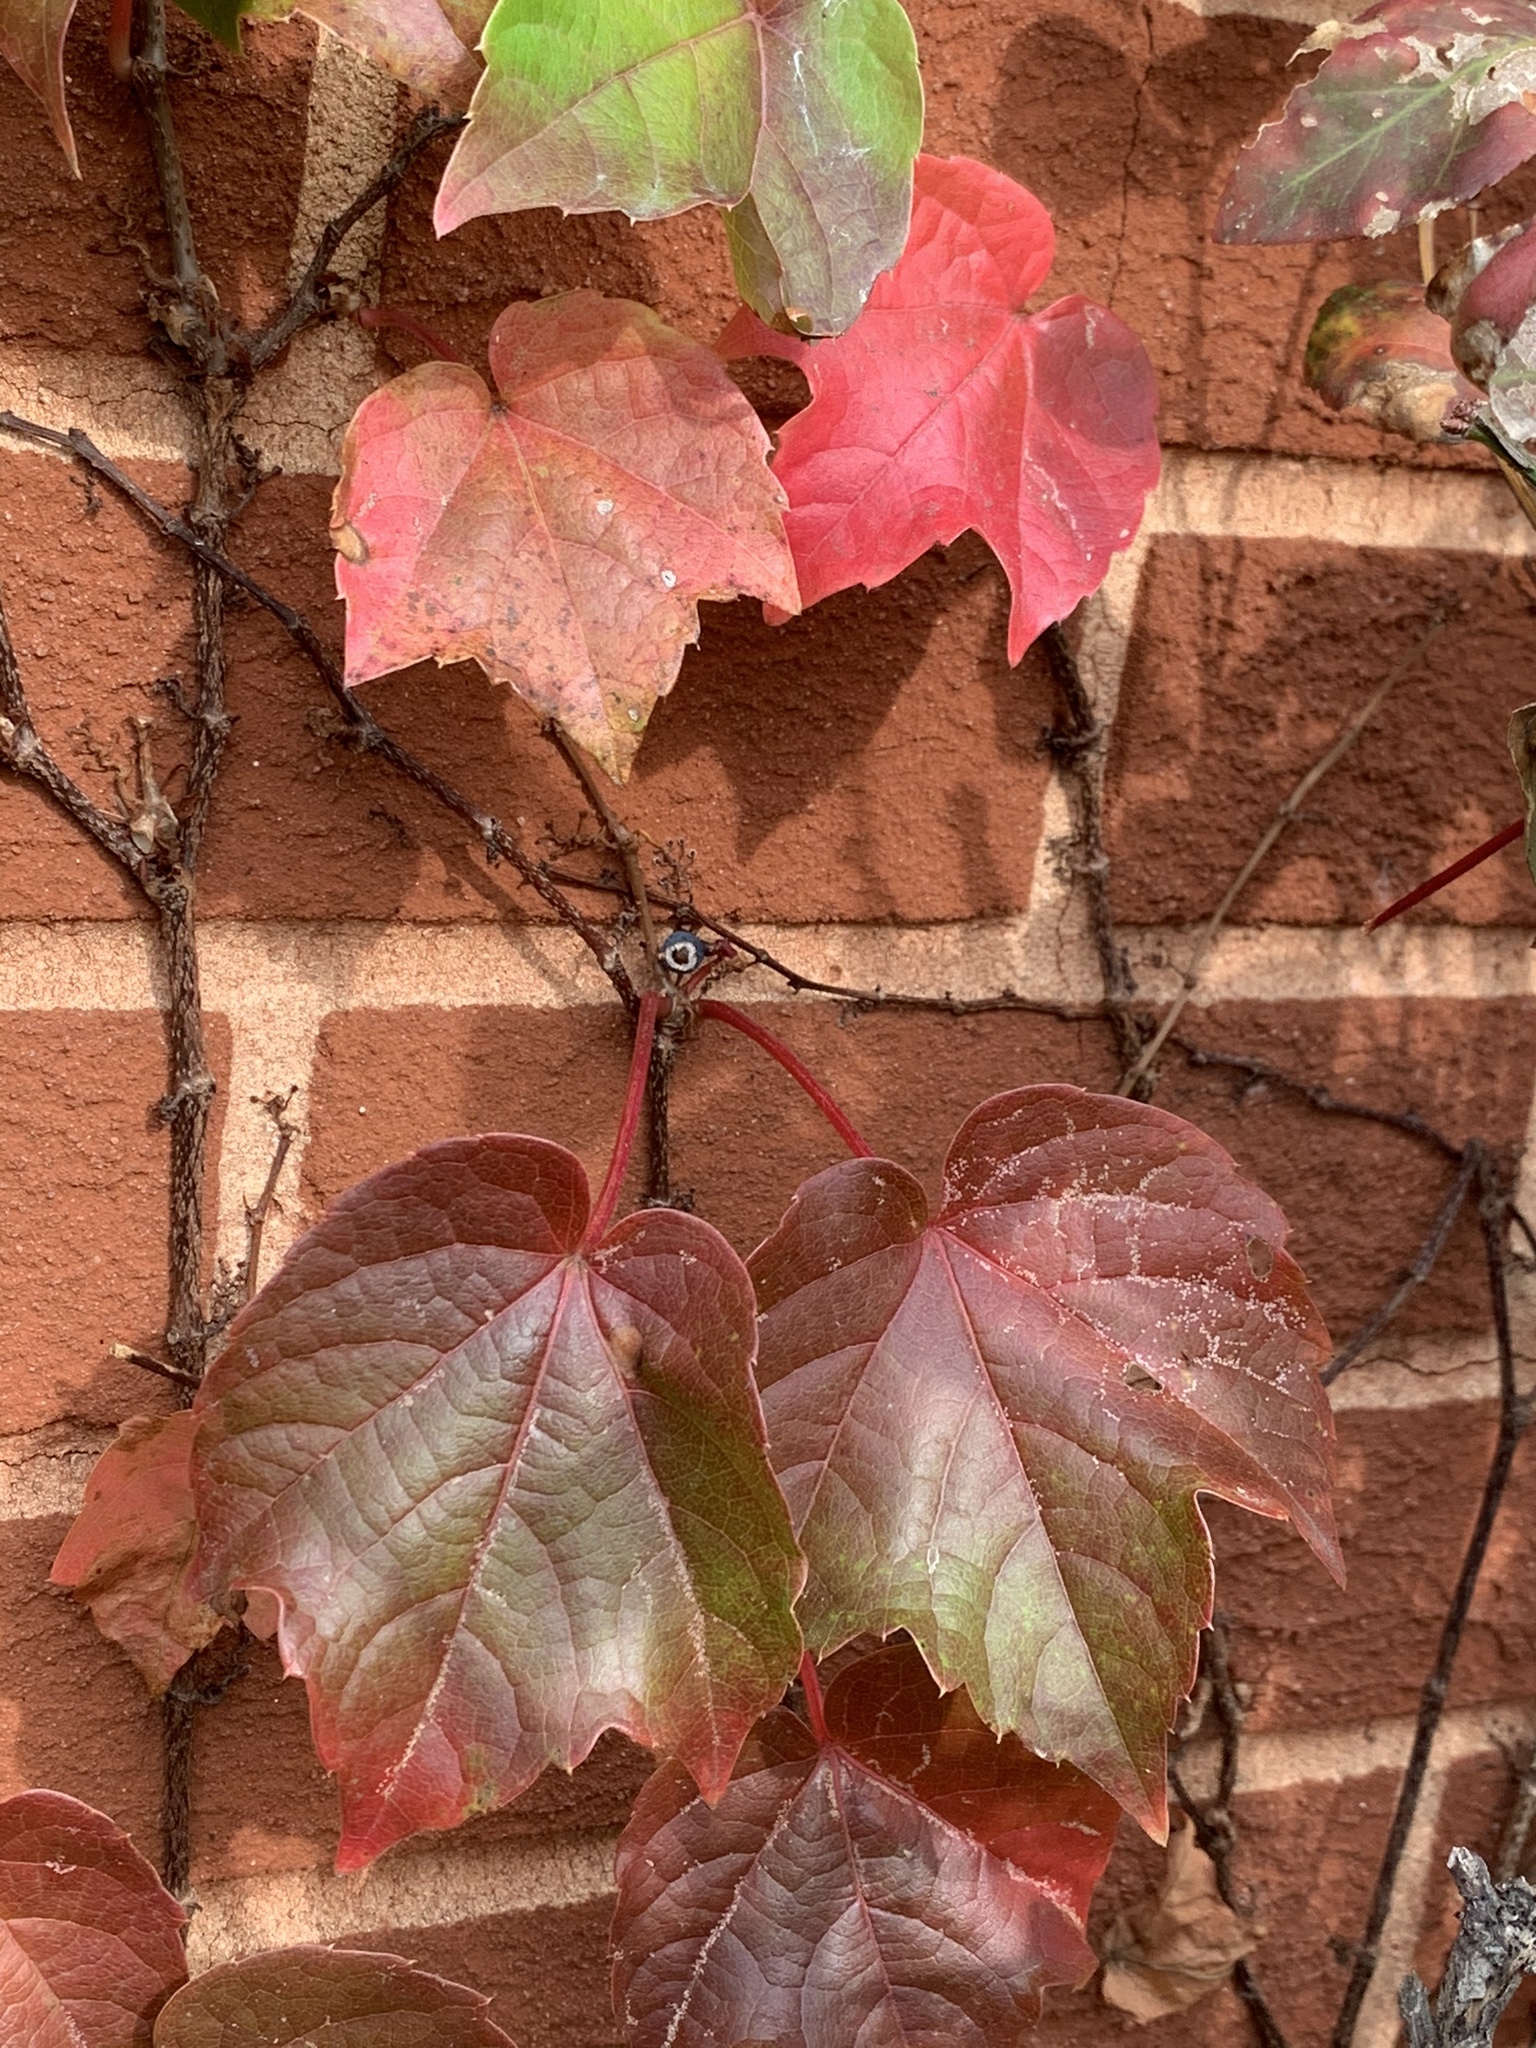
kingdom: Plantae
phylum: Tracheophyta
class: Magnoliopsida
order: Vitales
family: Vitaceae
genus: Parthenocissus
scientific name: Parthenocissus tricuspidata
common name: Boston ivy
